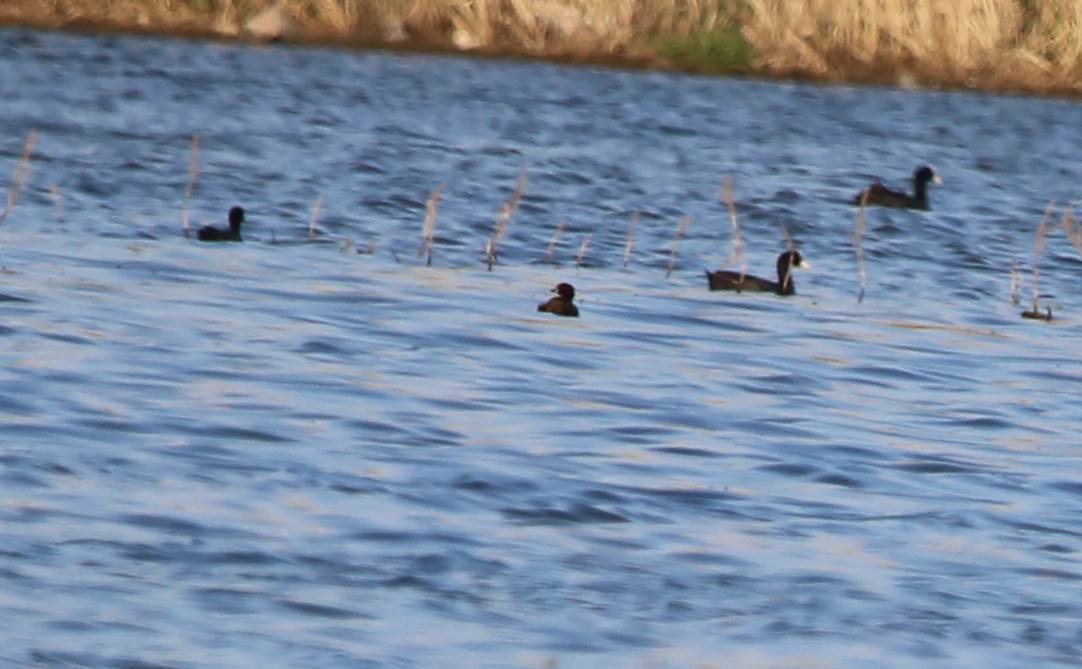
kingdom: Animalia
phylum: Chordata
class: Aves
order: Gruiformes
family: Rallidae
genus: Fulica
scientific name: Fulica atra
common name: Eurasian coot
